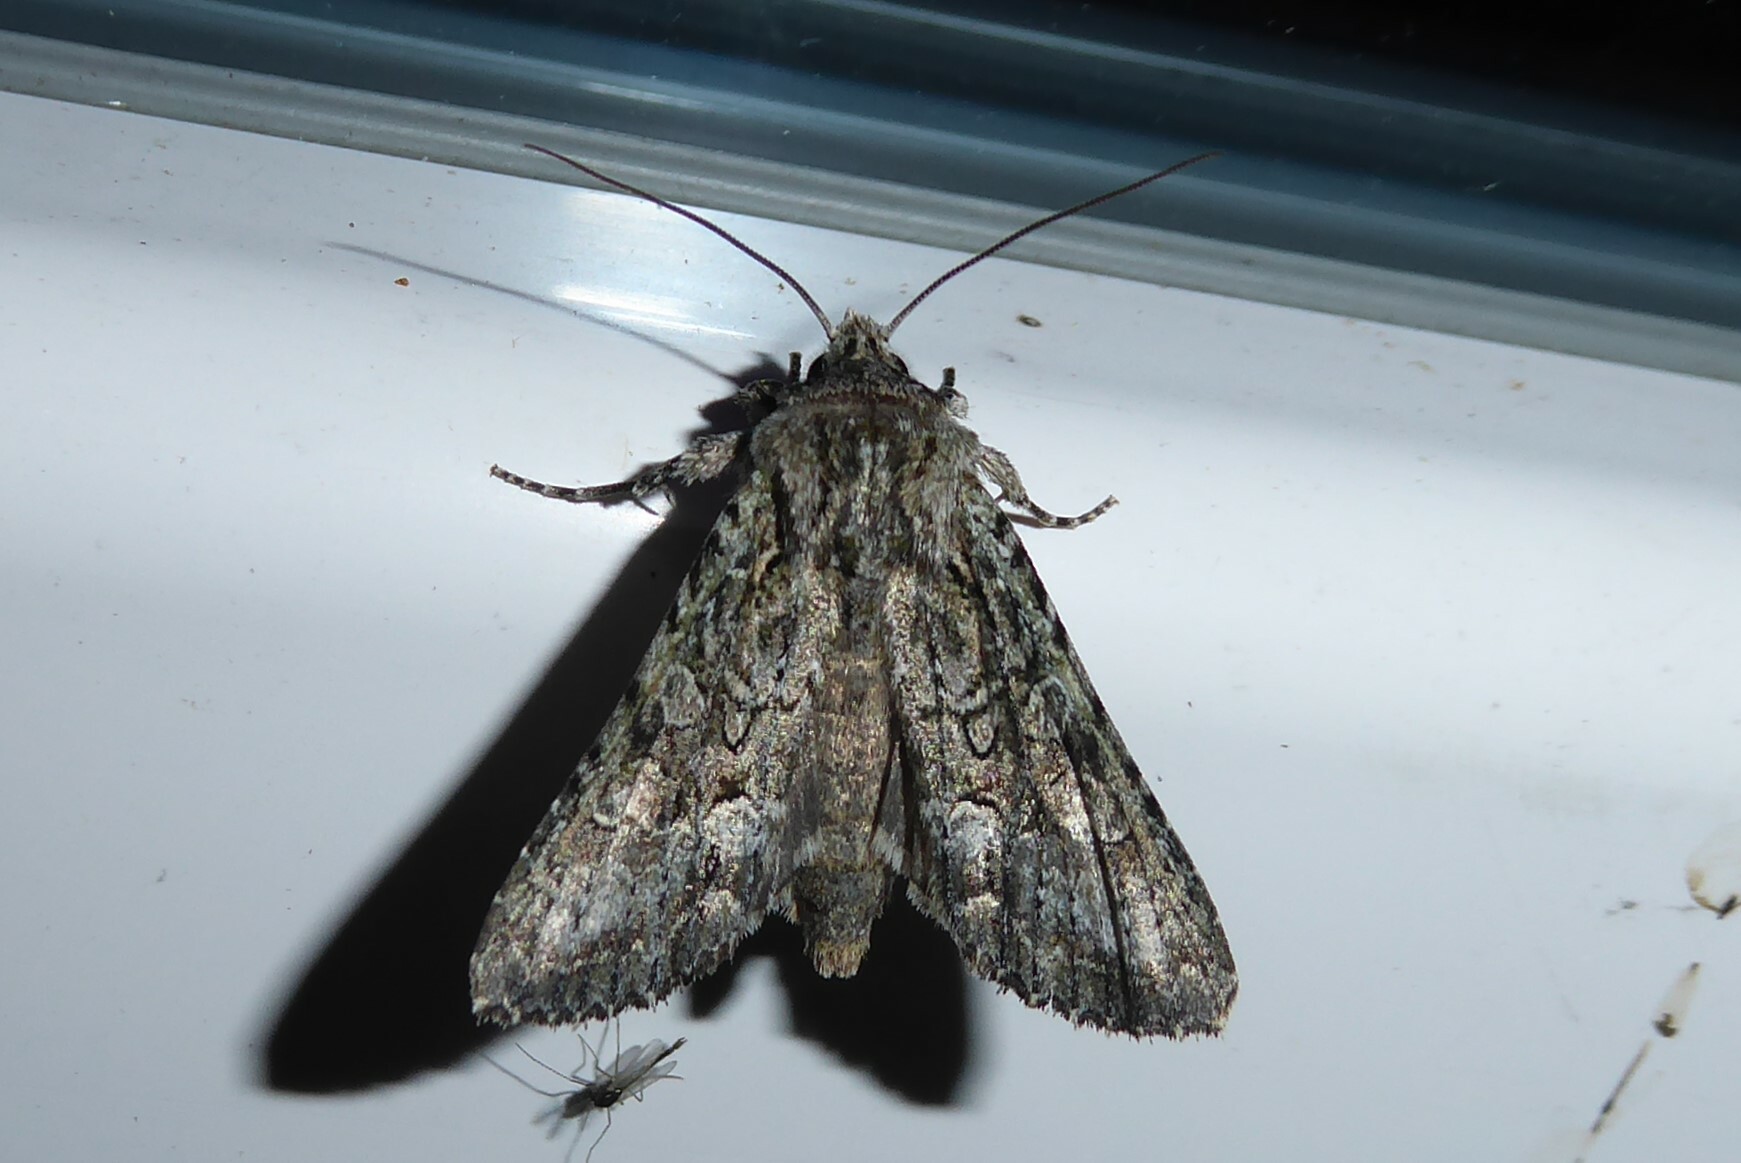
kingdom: Animalia
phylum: Arthropoda
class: Insecta
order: Lepidoptera
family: Noctuidae
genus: Ichneutica
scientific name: Ichneutica mutans
